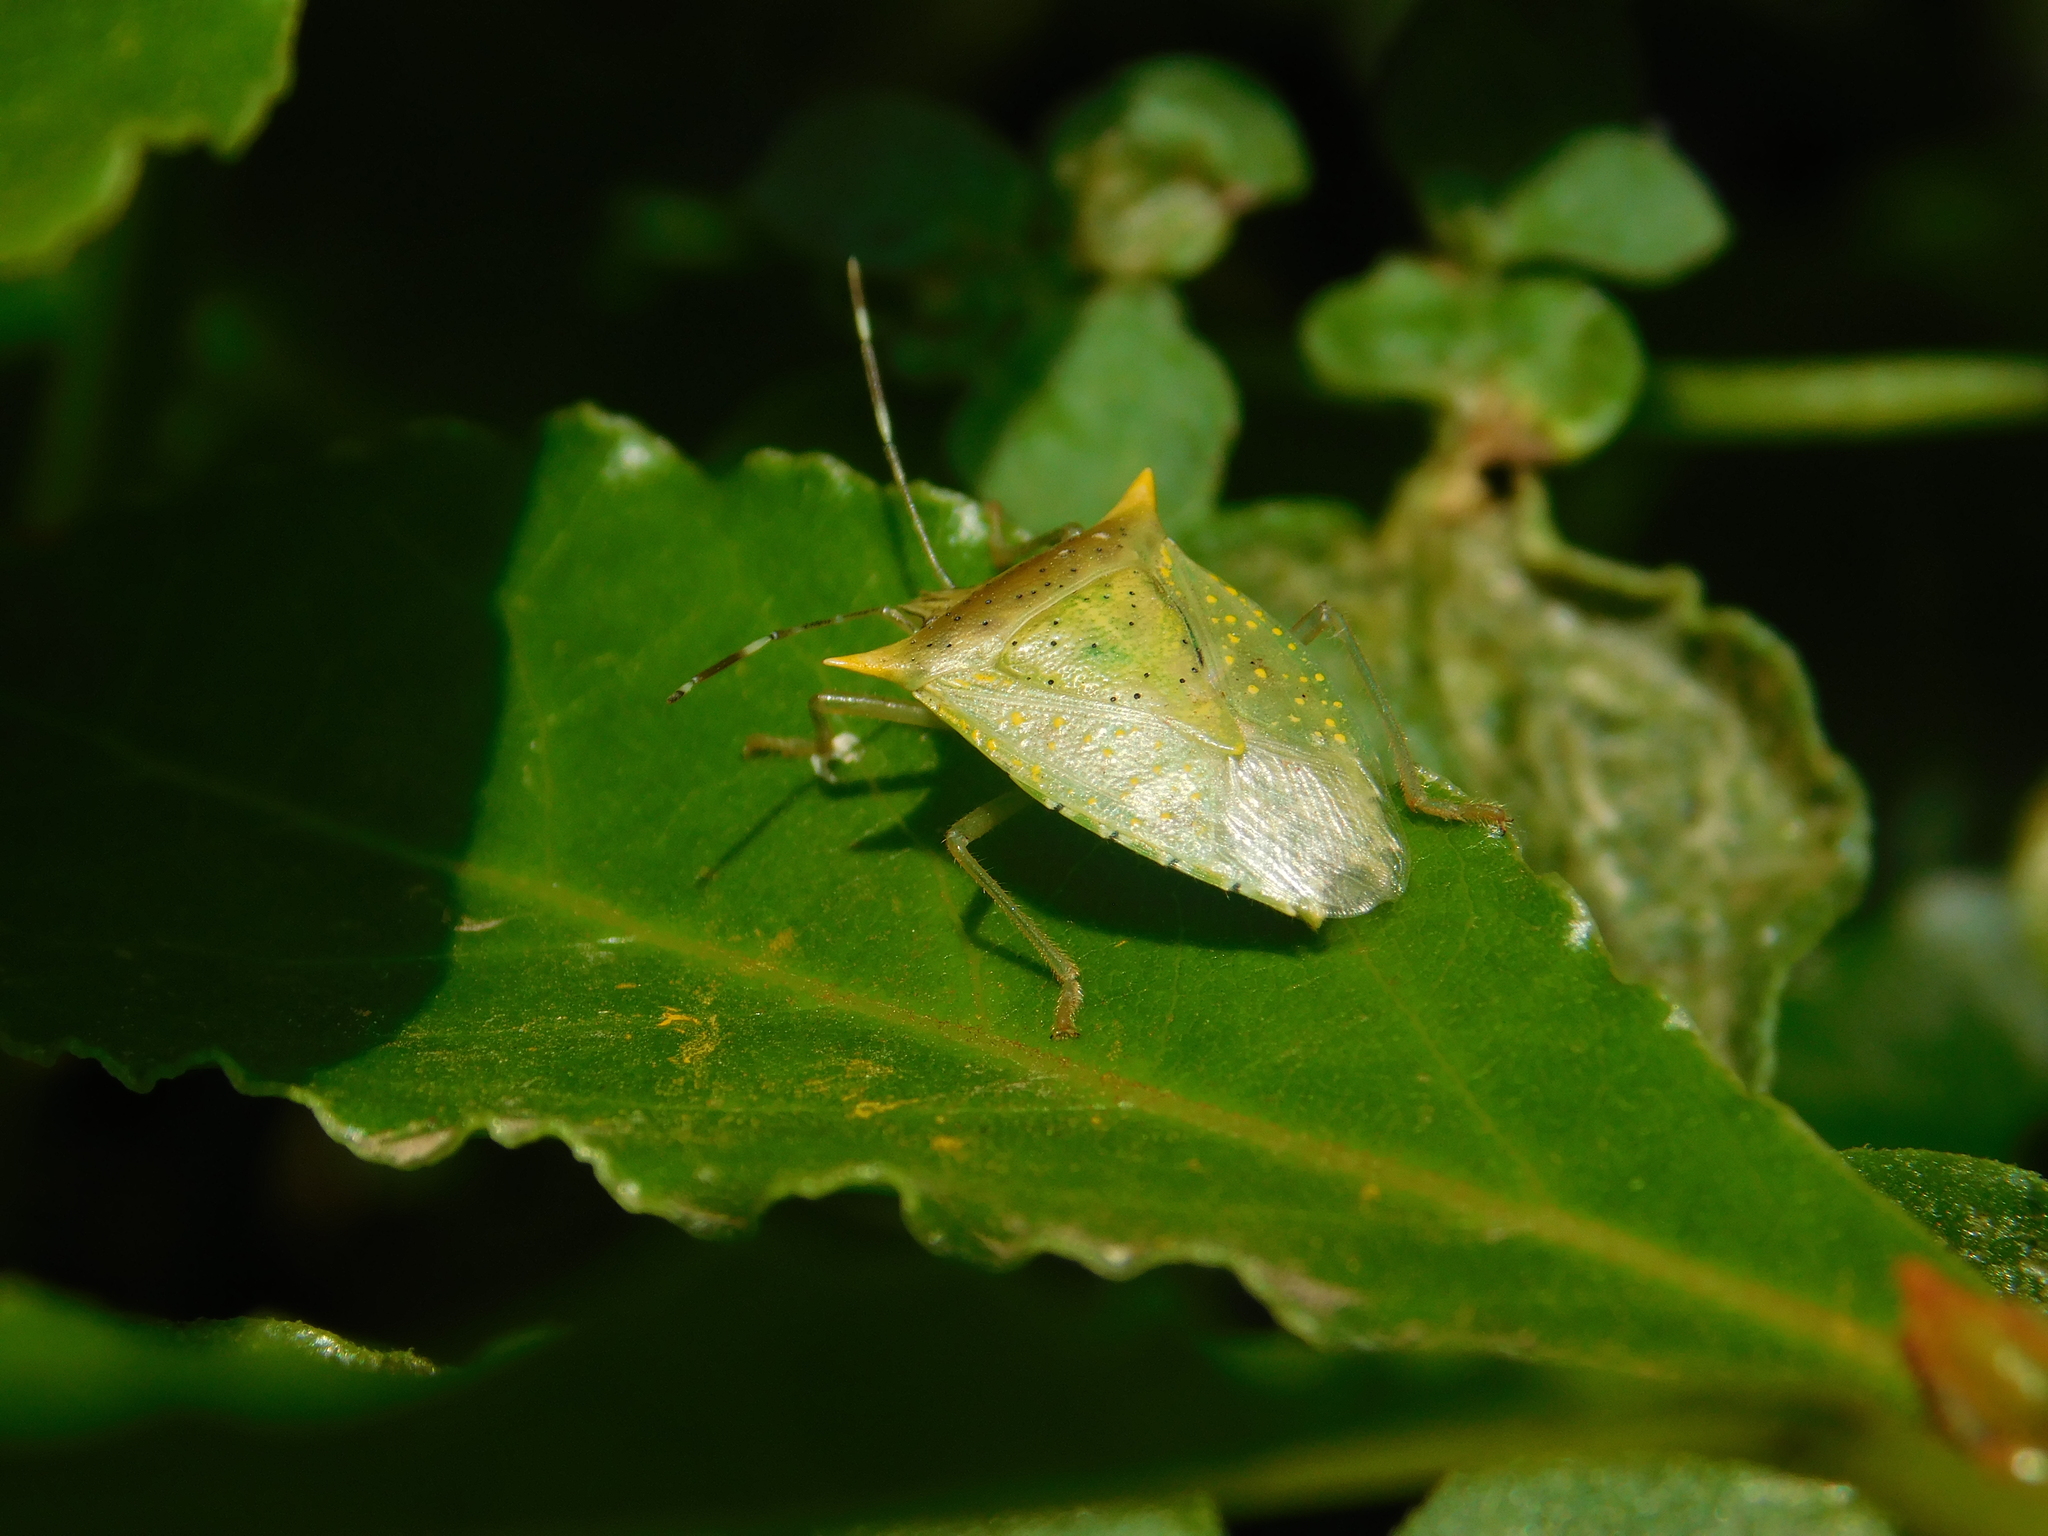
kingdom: Animalia
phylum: Arthropoda
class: Insecta
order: Hemiptera
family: Pentatomidae
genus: Arvelius
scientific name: Arvelius albopunctatus
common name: Tomato stink bug
